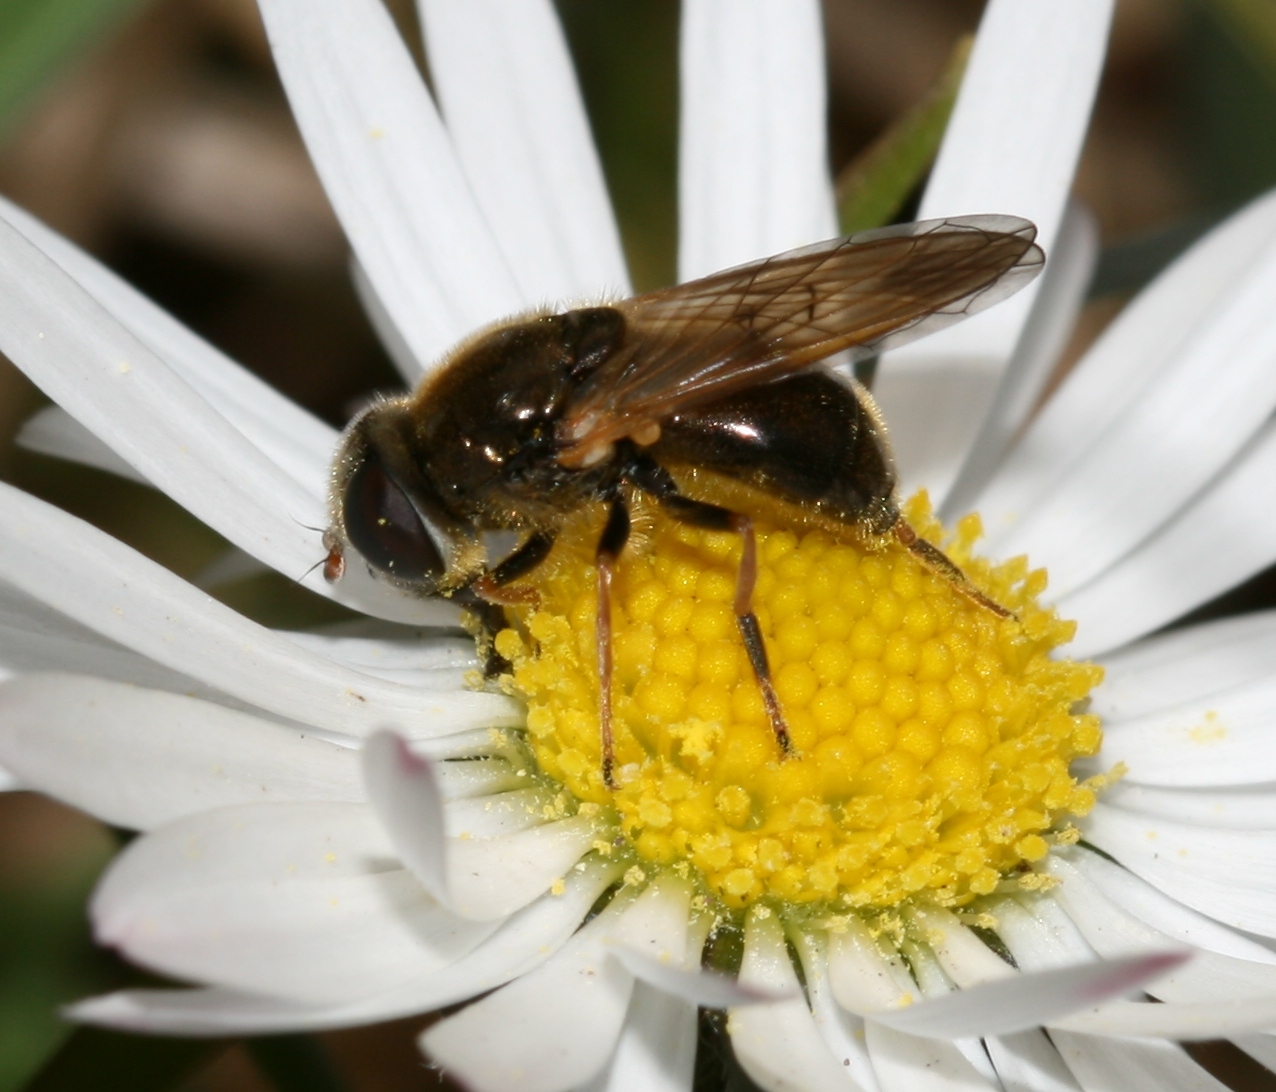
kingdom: Animalia
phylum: Arthropoda
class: Insecta
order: Diptera
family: Syrphidae
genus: Cheilosia
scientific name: Cheilosia nebulosa
